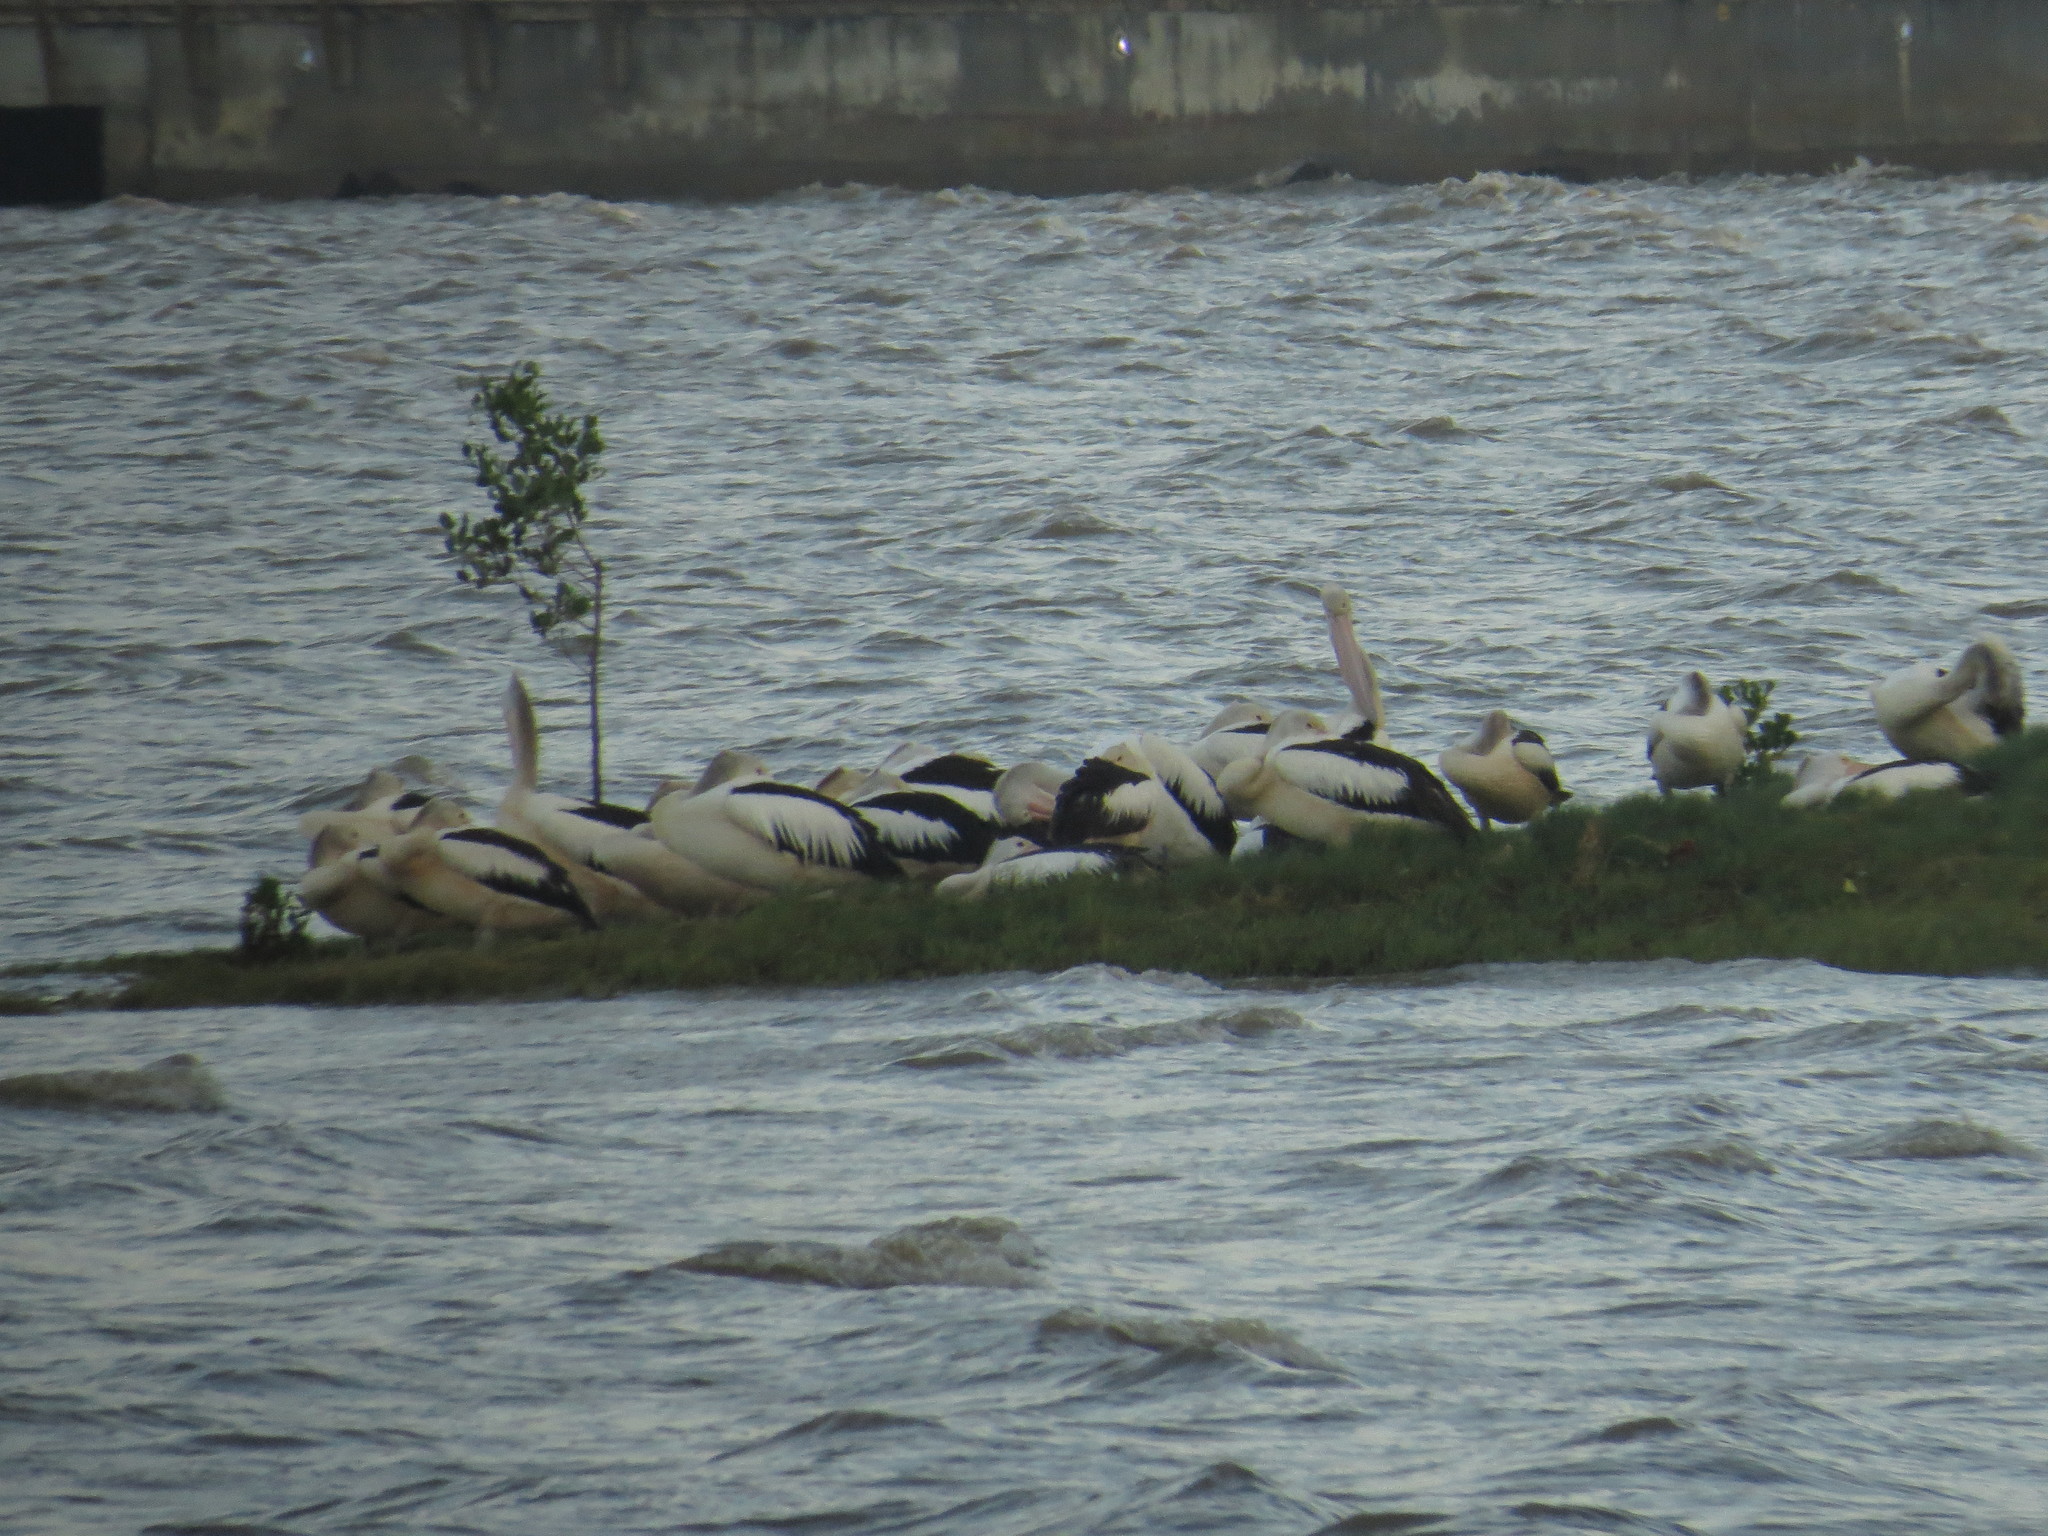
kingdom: Animalia
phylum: Chordata
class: Aves
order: Pelecaniformes
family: Pelecanidae
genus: Pelecanus
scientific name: Pelecanus conspicillatus
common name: Australian pelican
